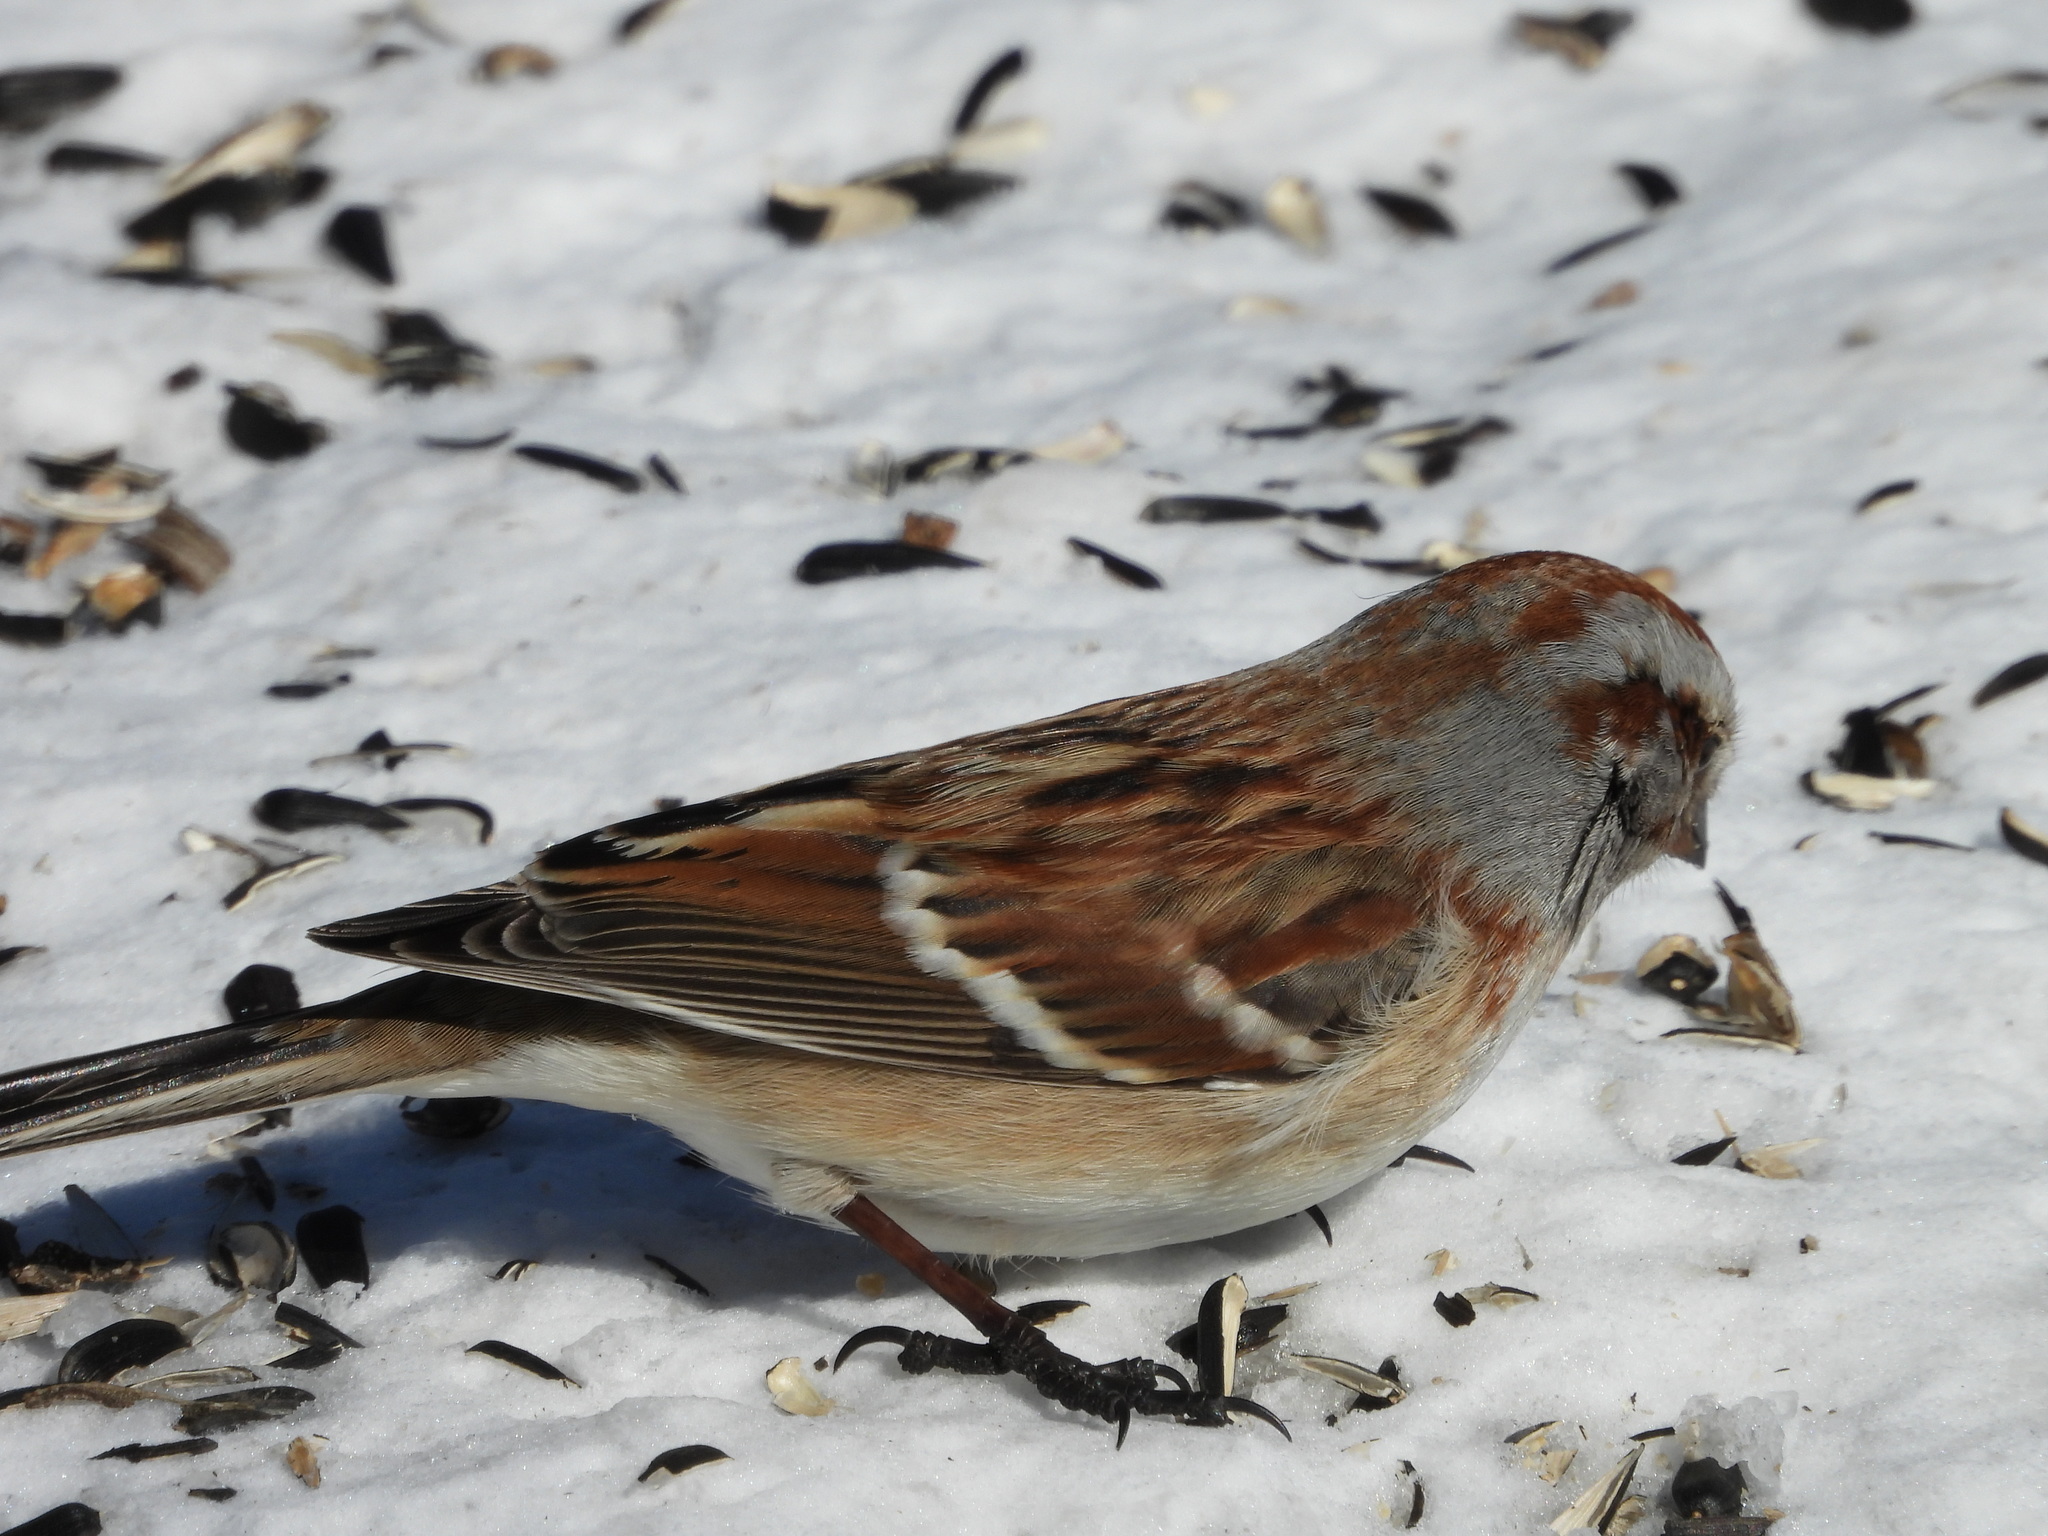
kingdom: Animalia
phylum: Chordata
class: Aves
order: Passeriformes
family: Passerellidae
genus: Spizelloides
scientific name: Spizelloides arborea
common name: American tree sparrow
